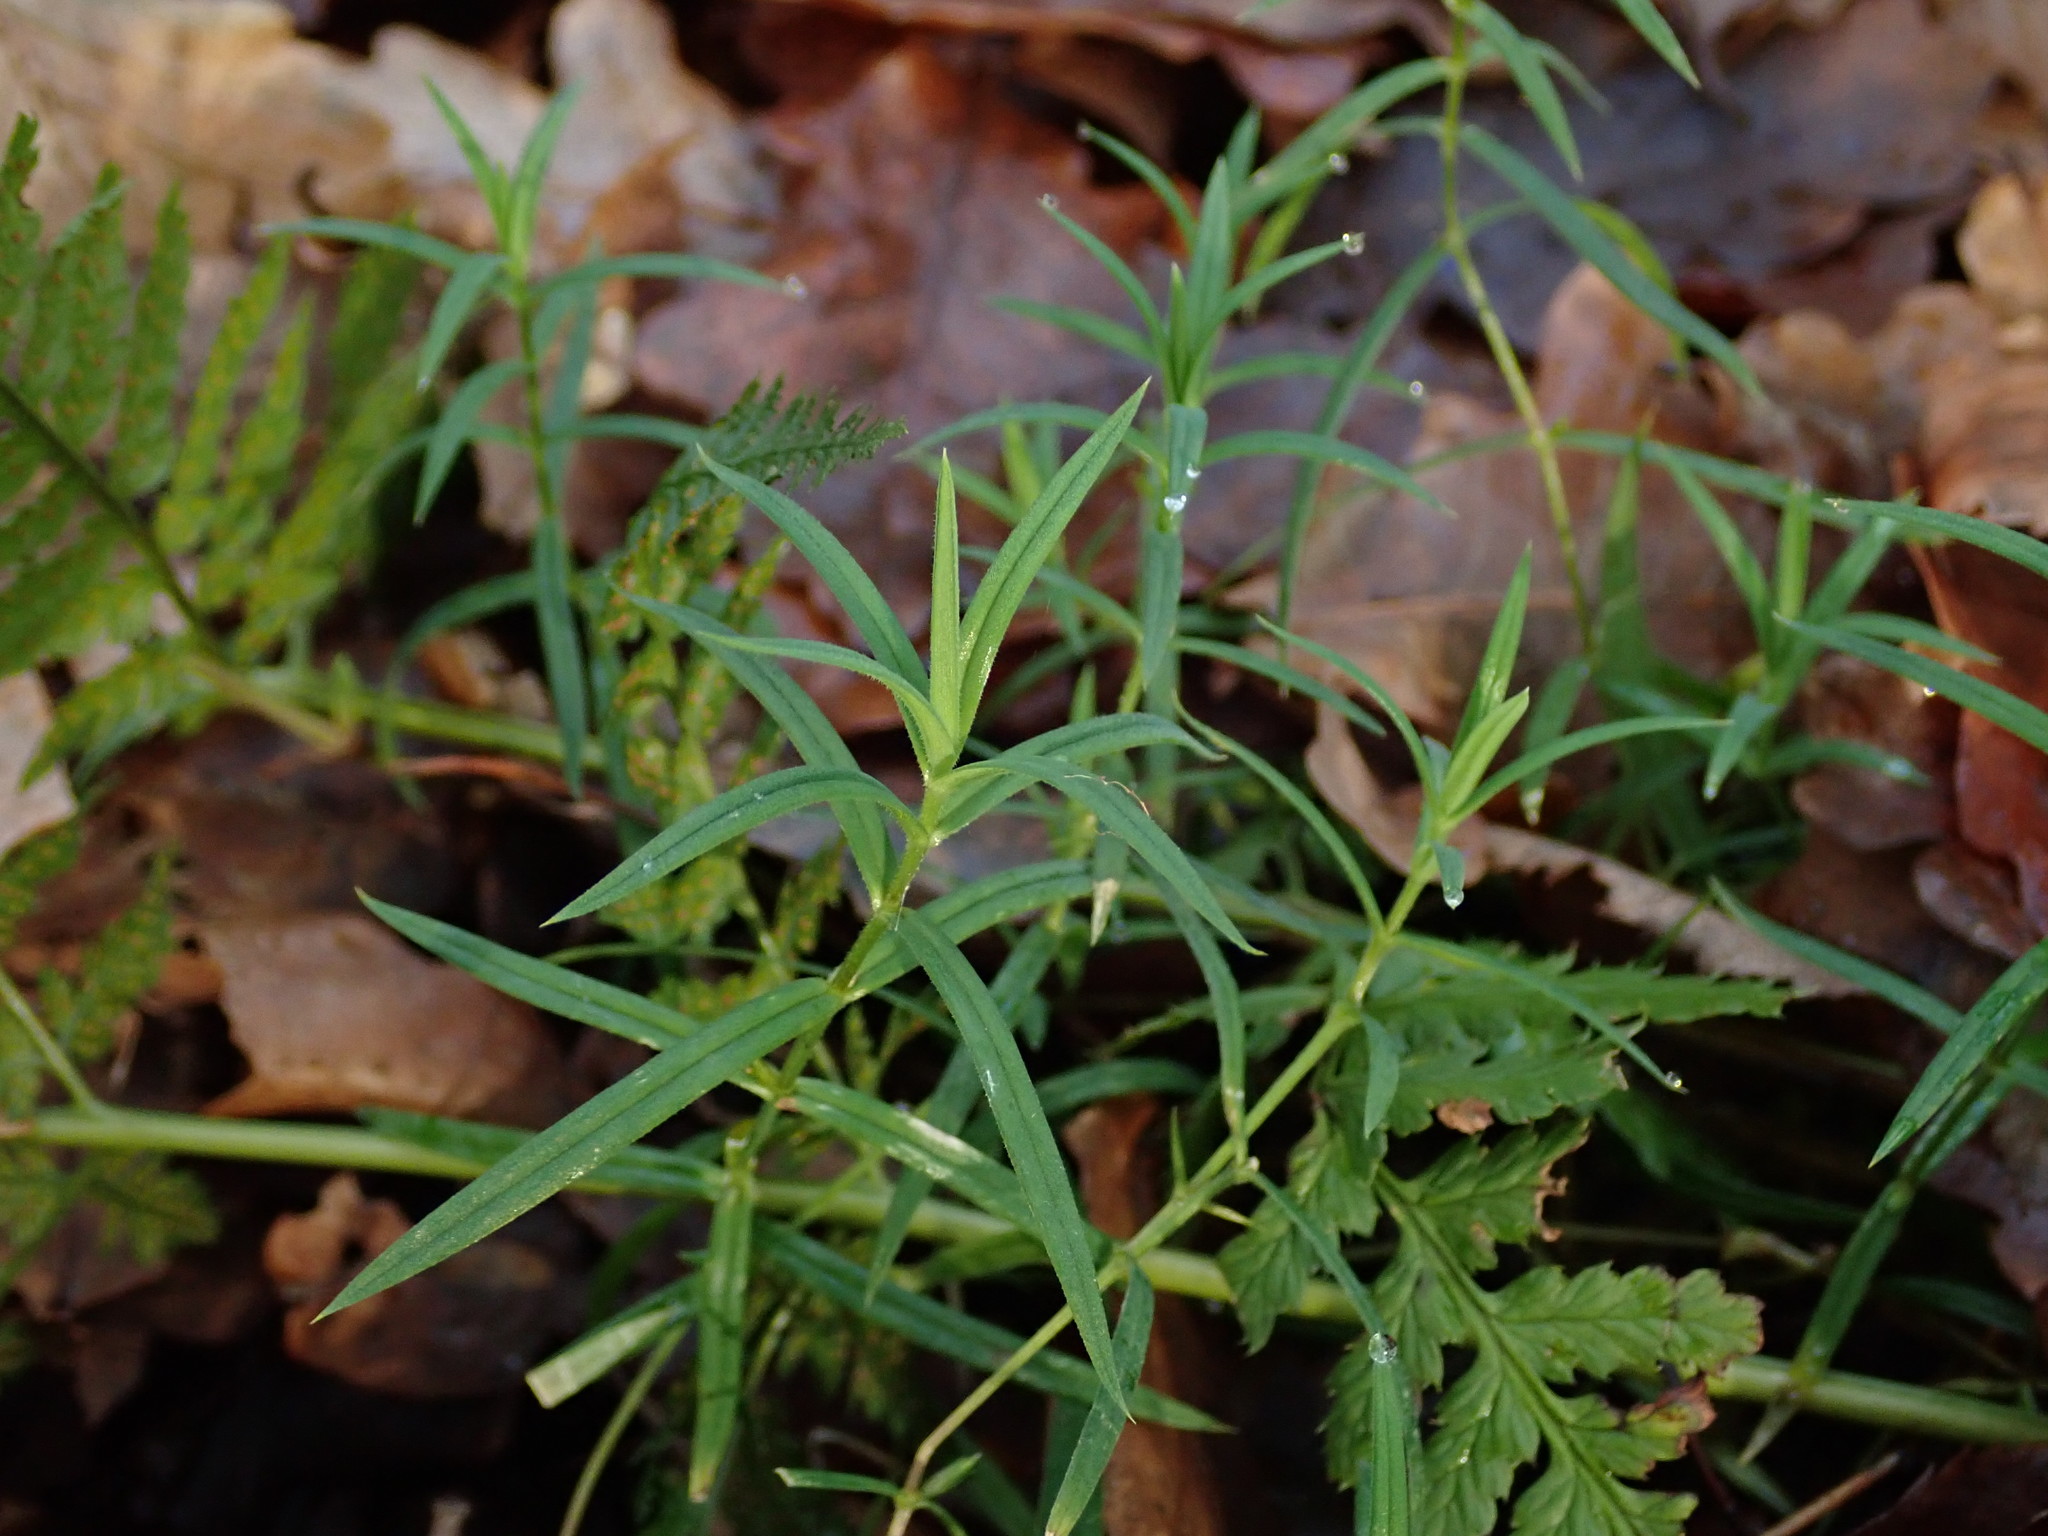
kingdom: Plantae
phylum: Tracheophyta
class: Magnoliopsida
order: Caryophyllales
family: Caryophyllaceae
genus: Rabelera
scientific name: Rabelera holostea
